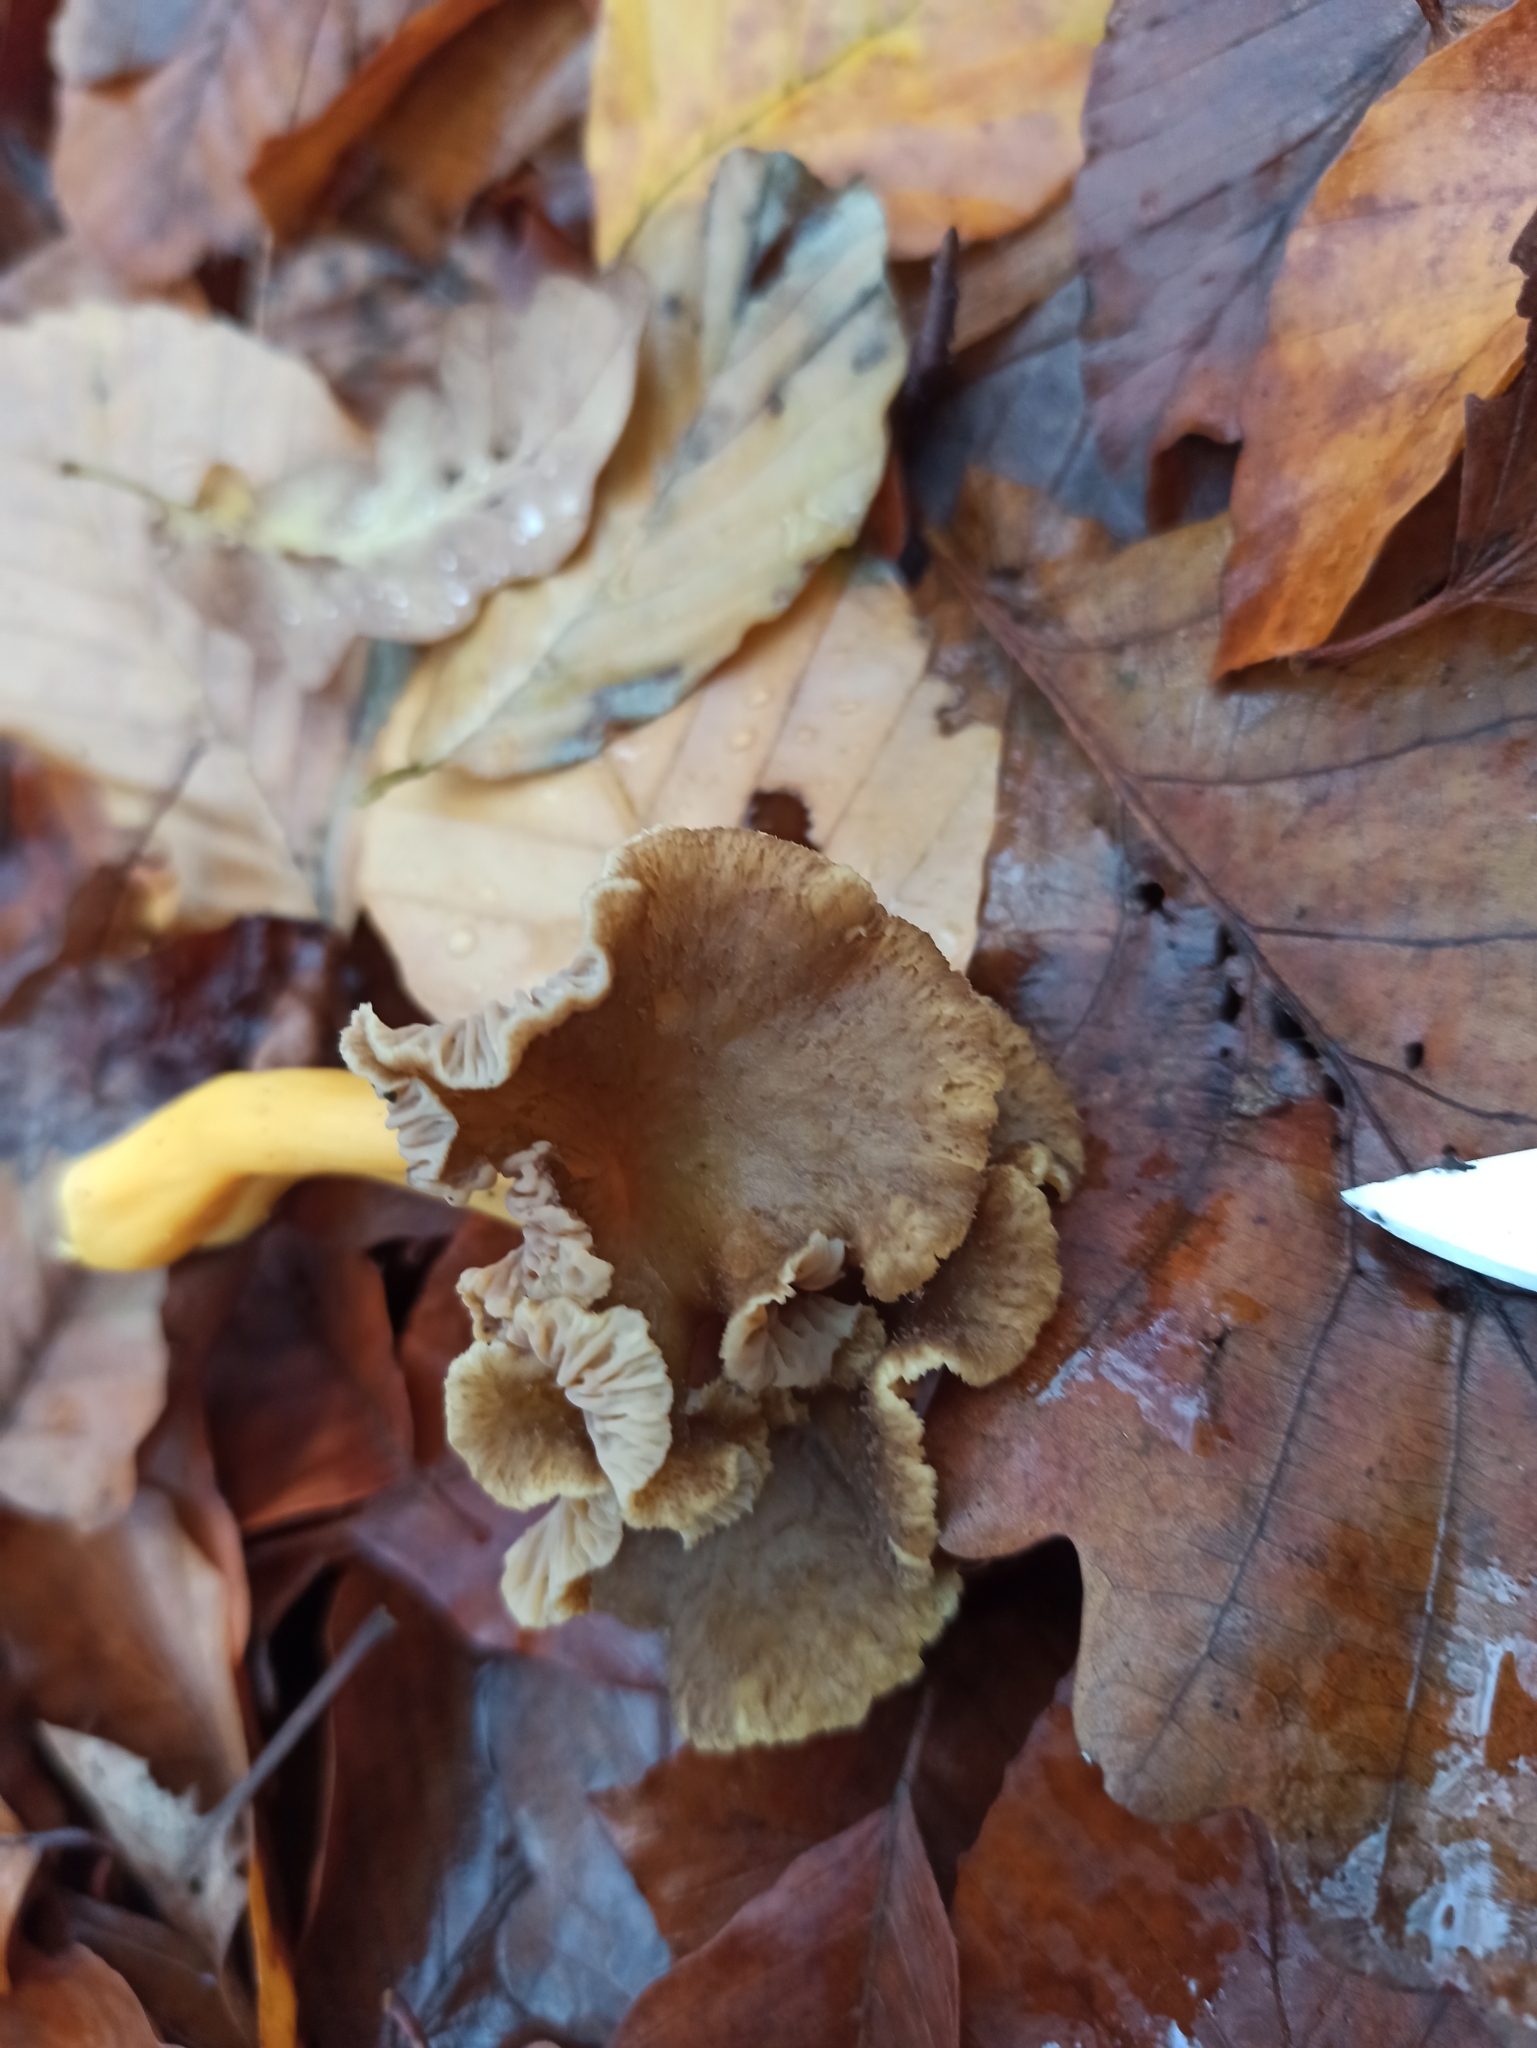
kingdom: Fungi
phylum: Basidiomycota
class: Agaricomycetes
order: Cantharellales
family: Hydnaceae
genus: Craterellus
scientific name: Craterellus tubaeformis
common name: Yellowfoot
